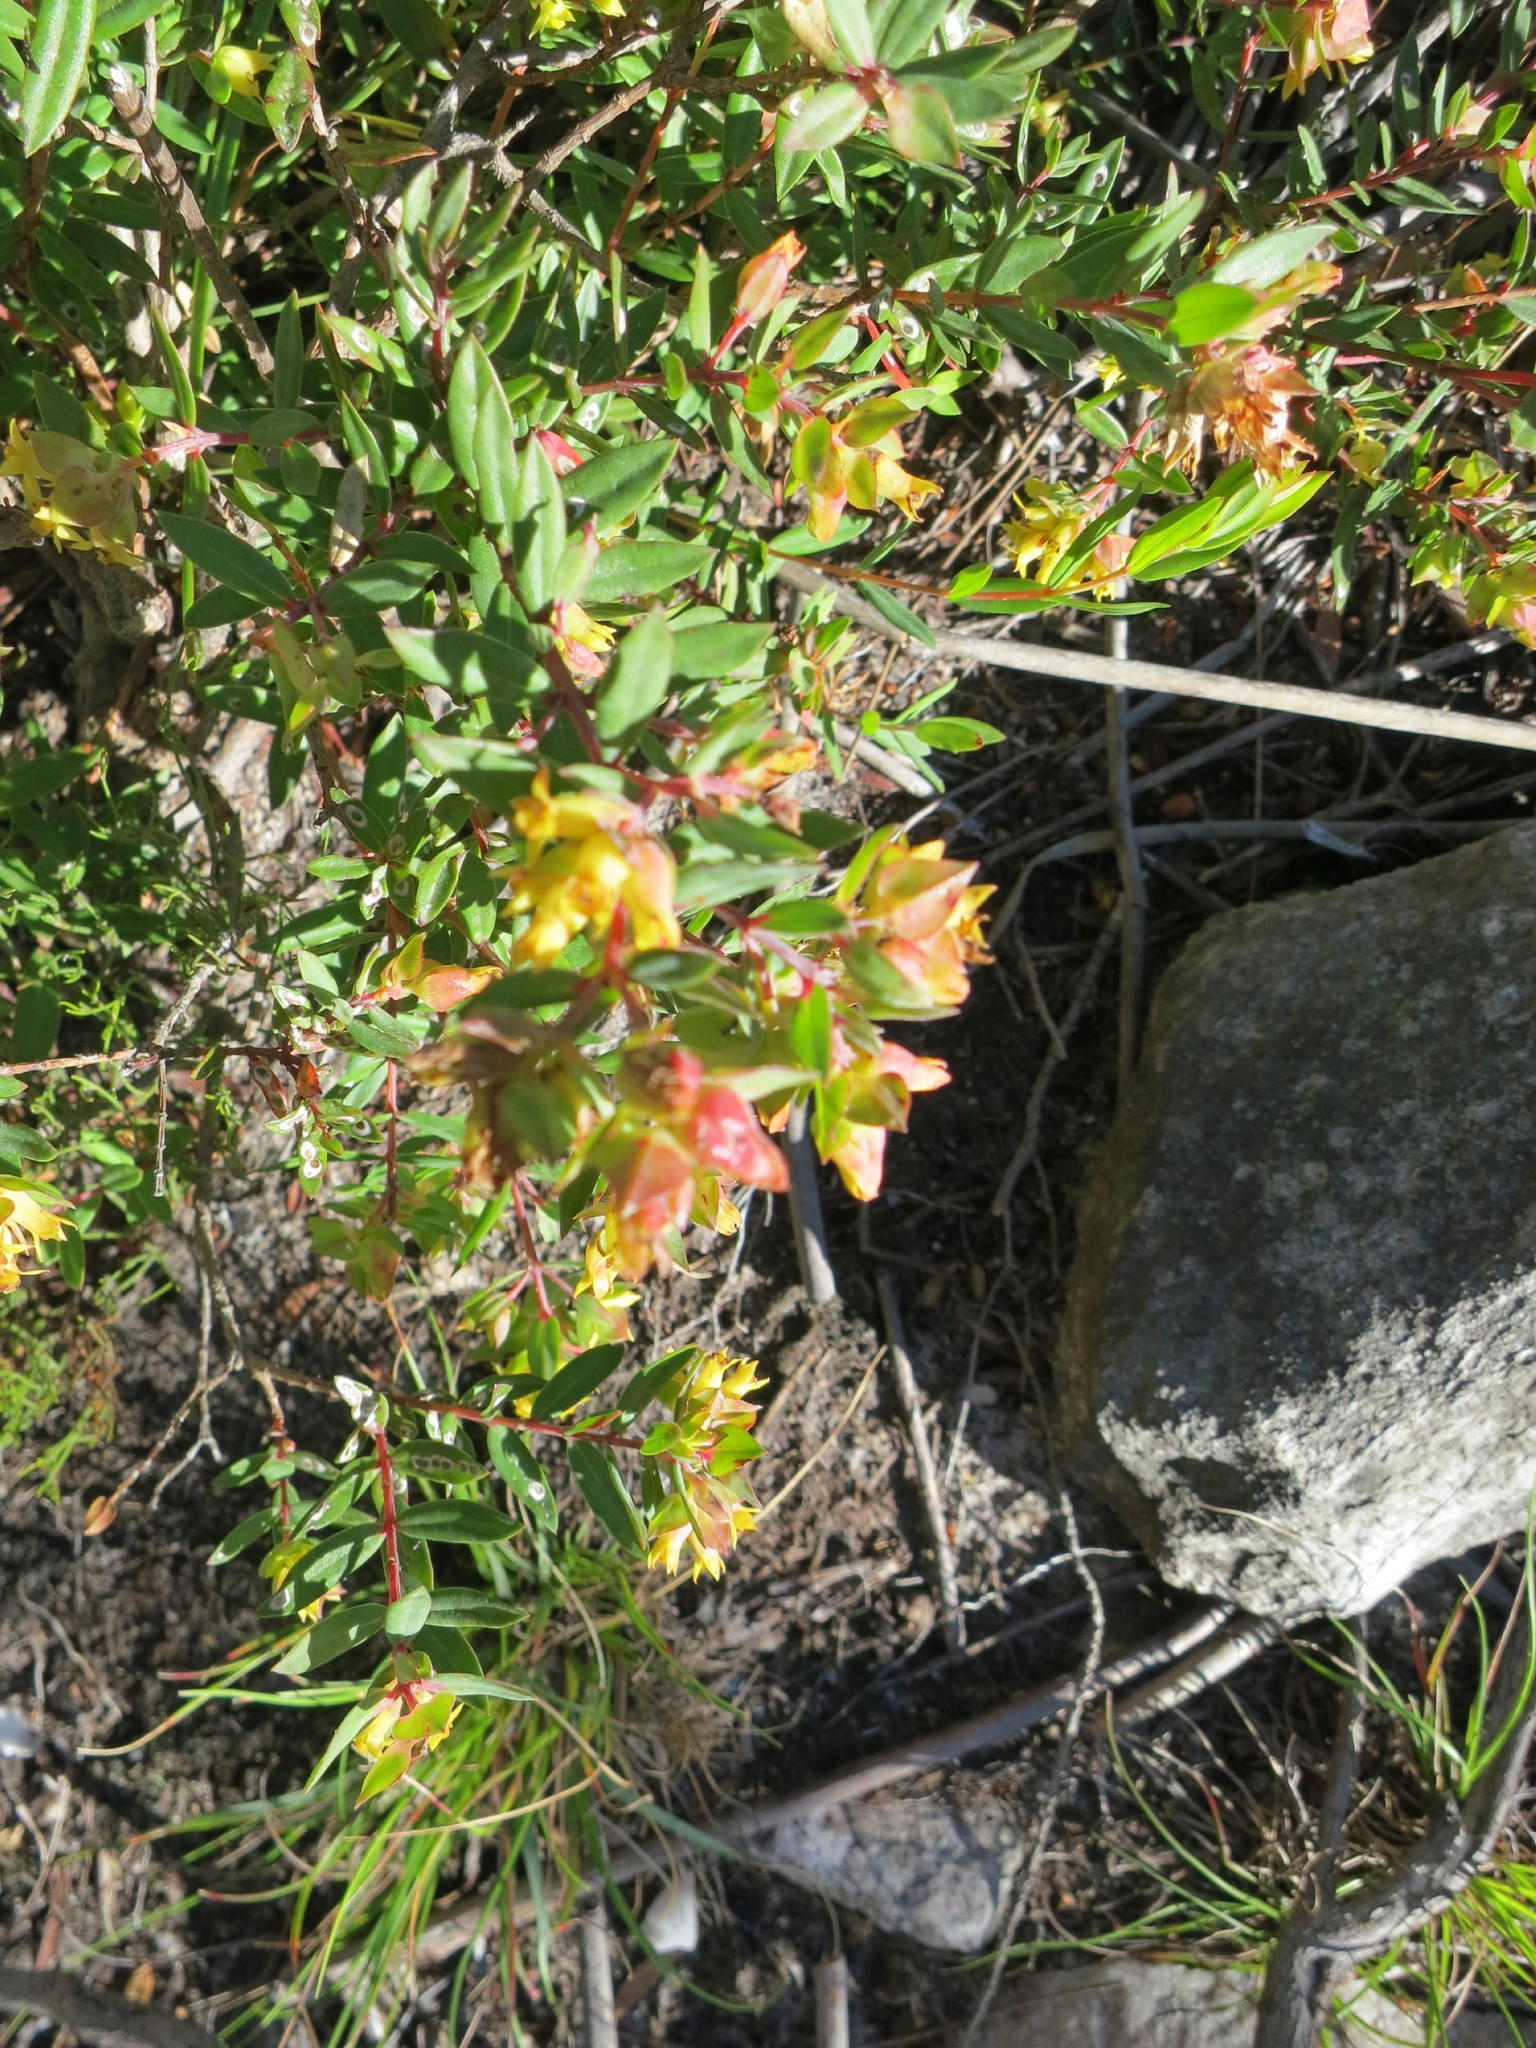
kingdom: Plantae
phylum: Tracheophyta
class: Magnoliopsida
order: Myrtales
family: Penaeaceae
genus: Penaea
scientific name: Penaea acutifolia
